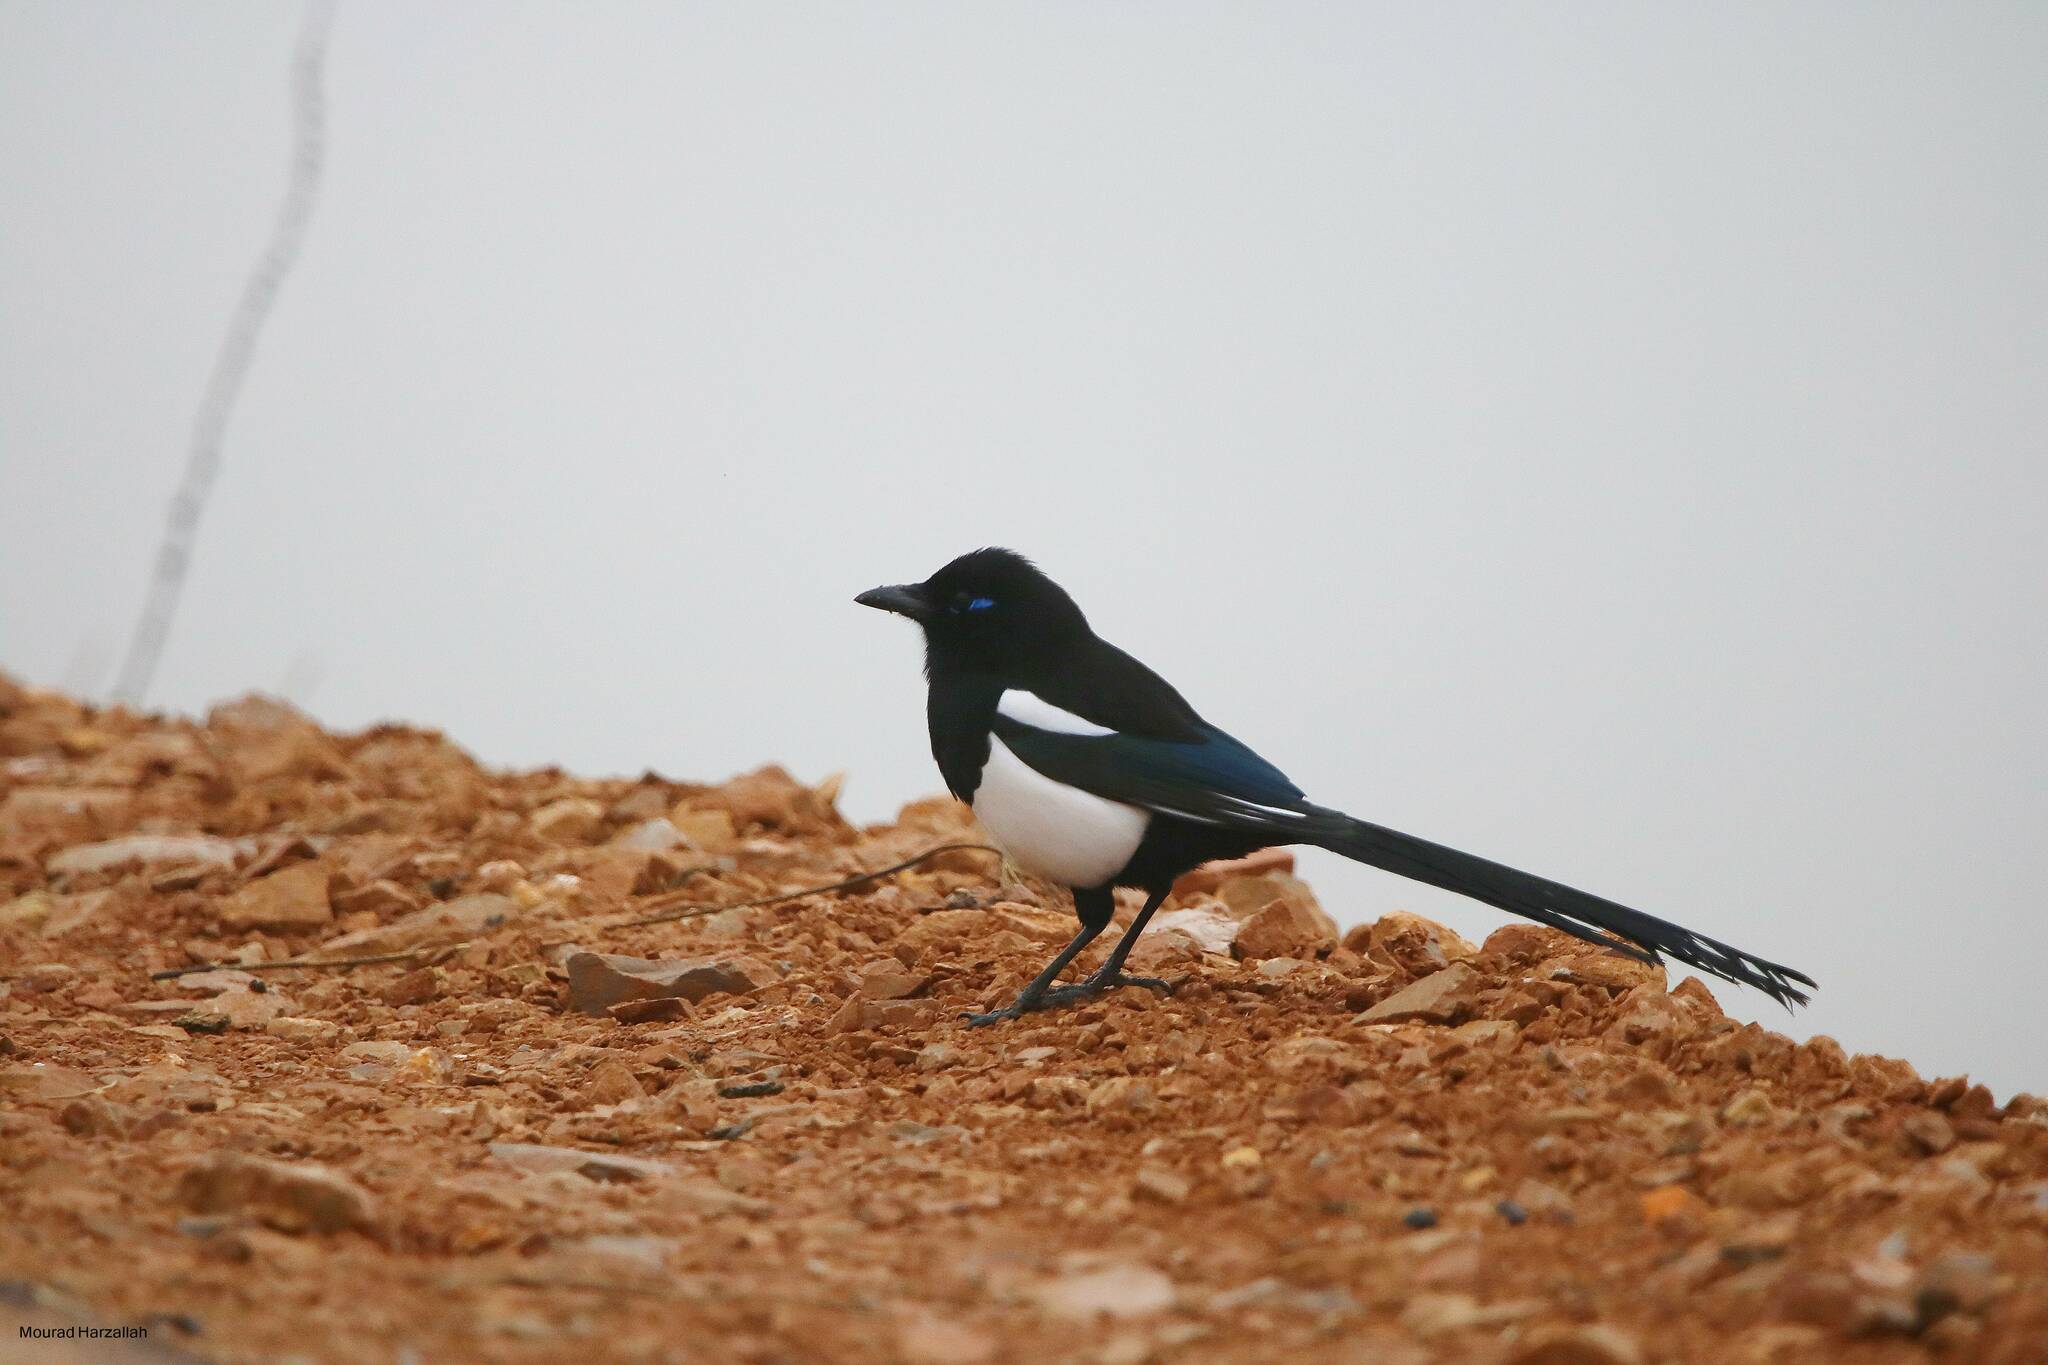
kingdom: Animalia
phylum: Chordata
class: Aves
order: Passeriformes
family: Corvidae
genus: Pica
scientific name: Pica mauritanica
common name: Maghreb magpie
